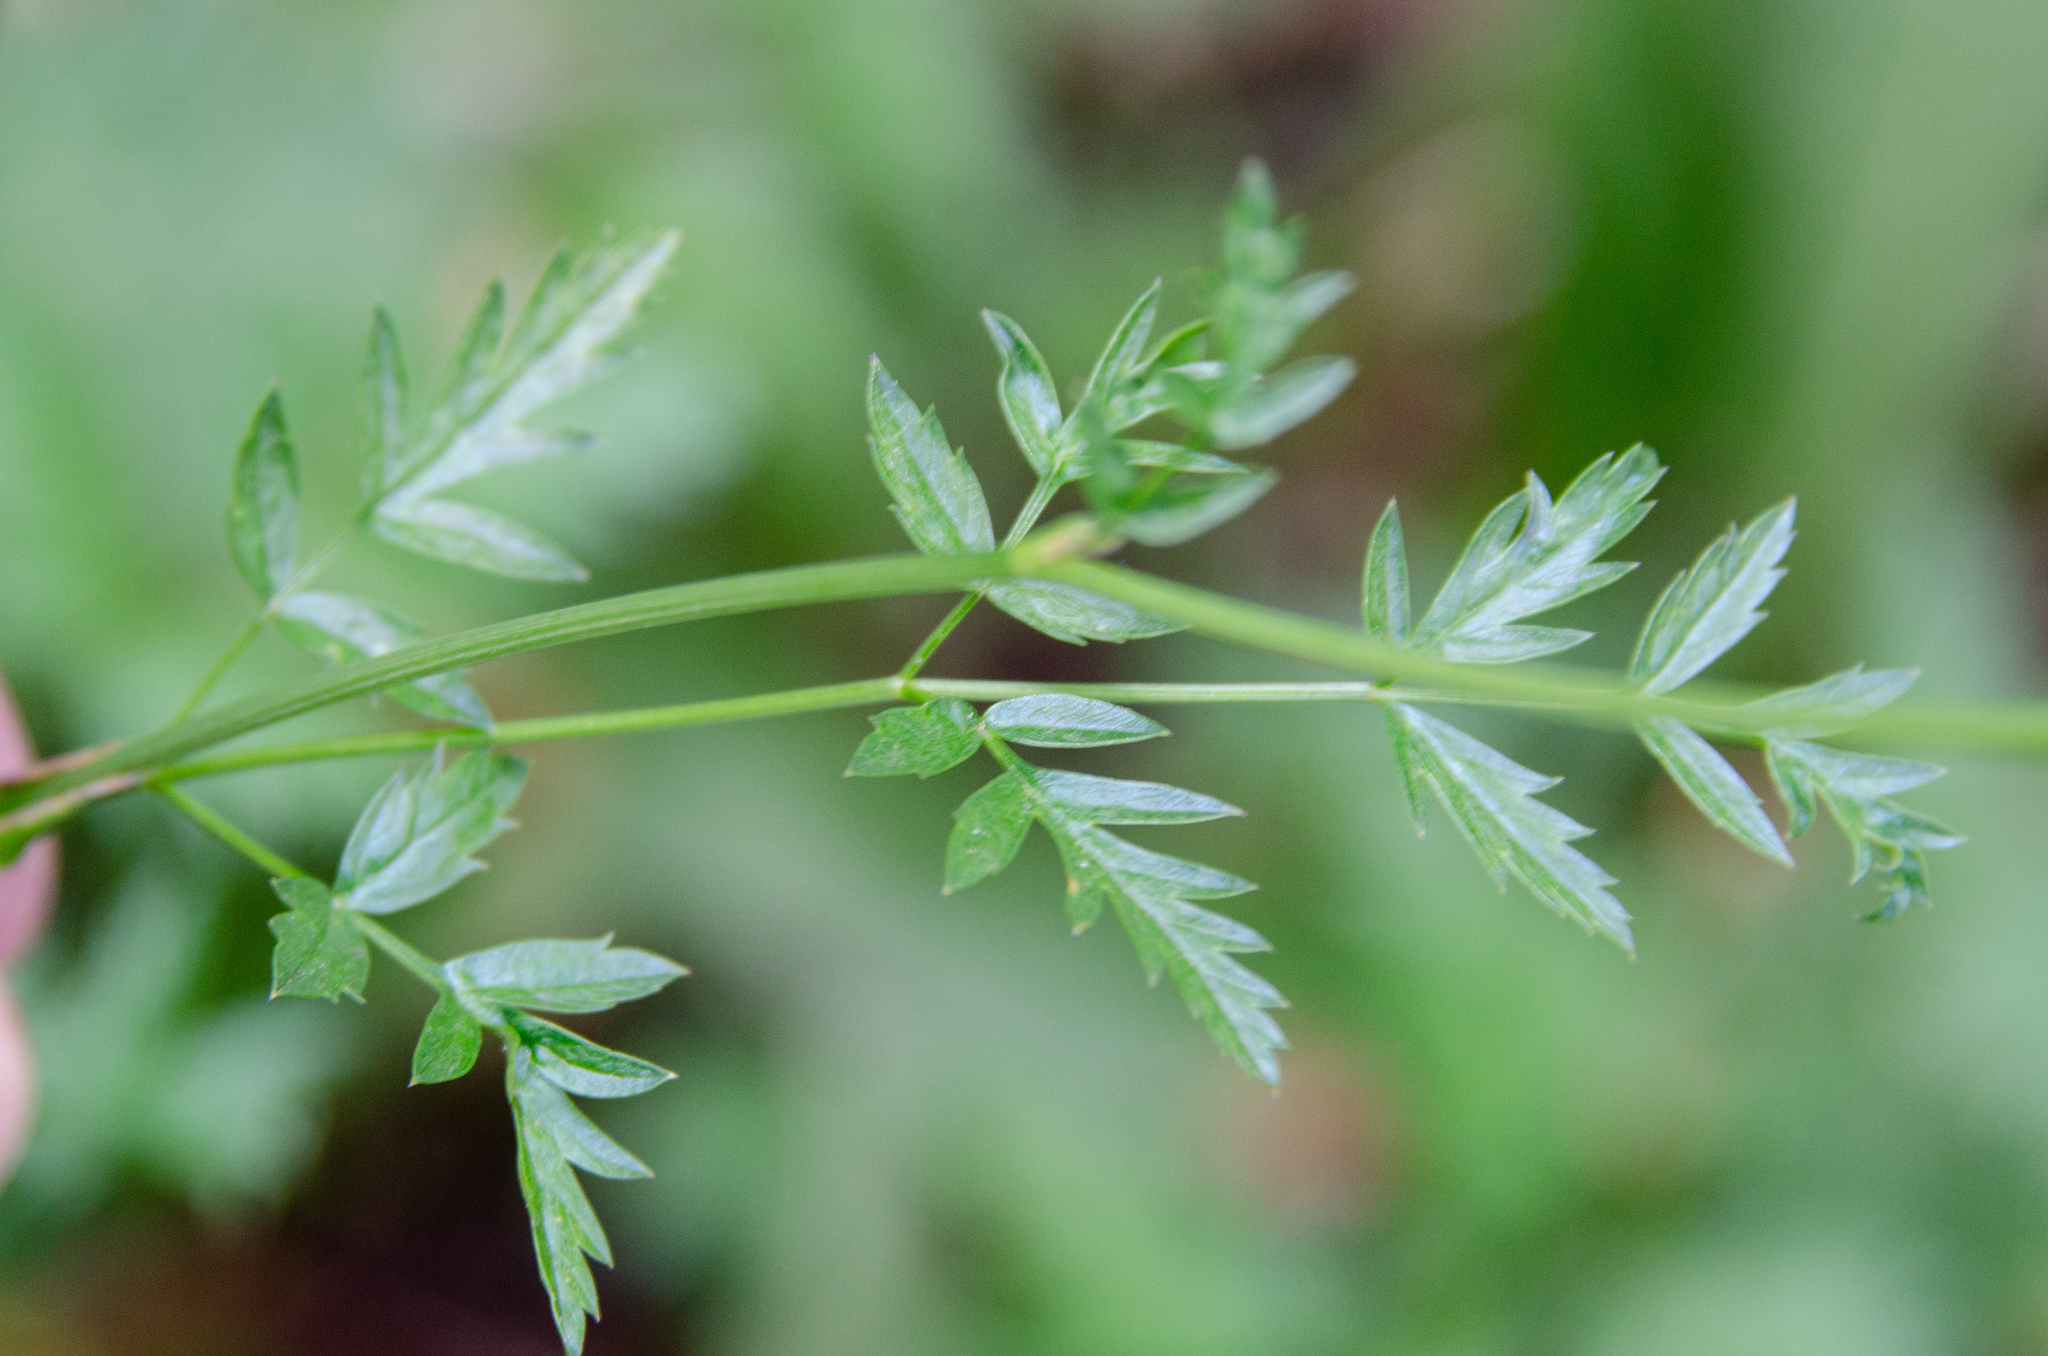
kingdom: Plantae
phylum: Tracheophyta
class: Magnoliopsida
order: Apiales
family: Apiaceae
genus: Ligusticum
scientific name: Ligusticum grayi
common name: Gray's licorice-root
